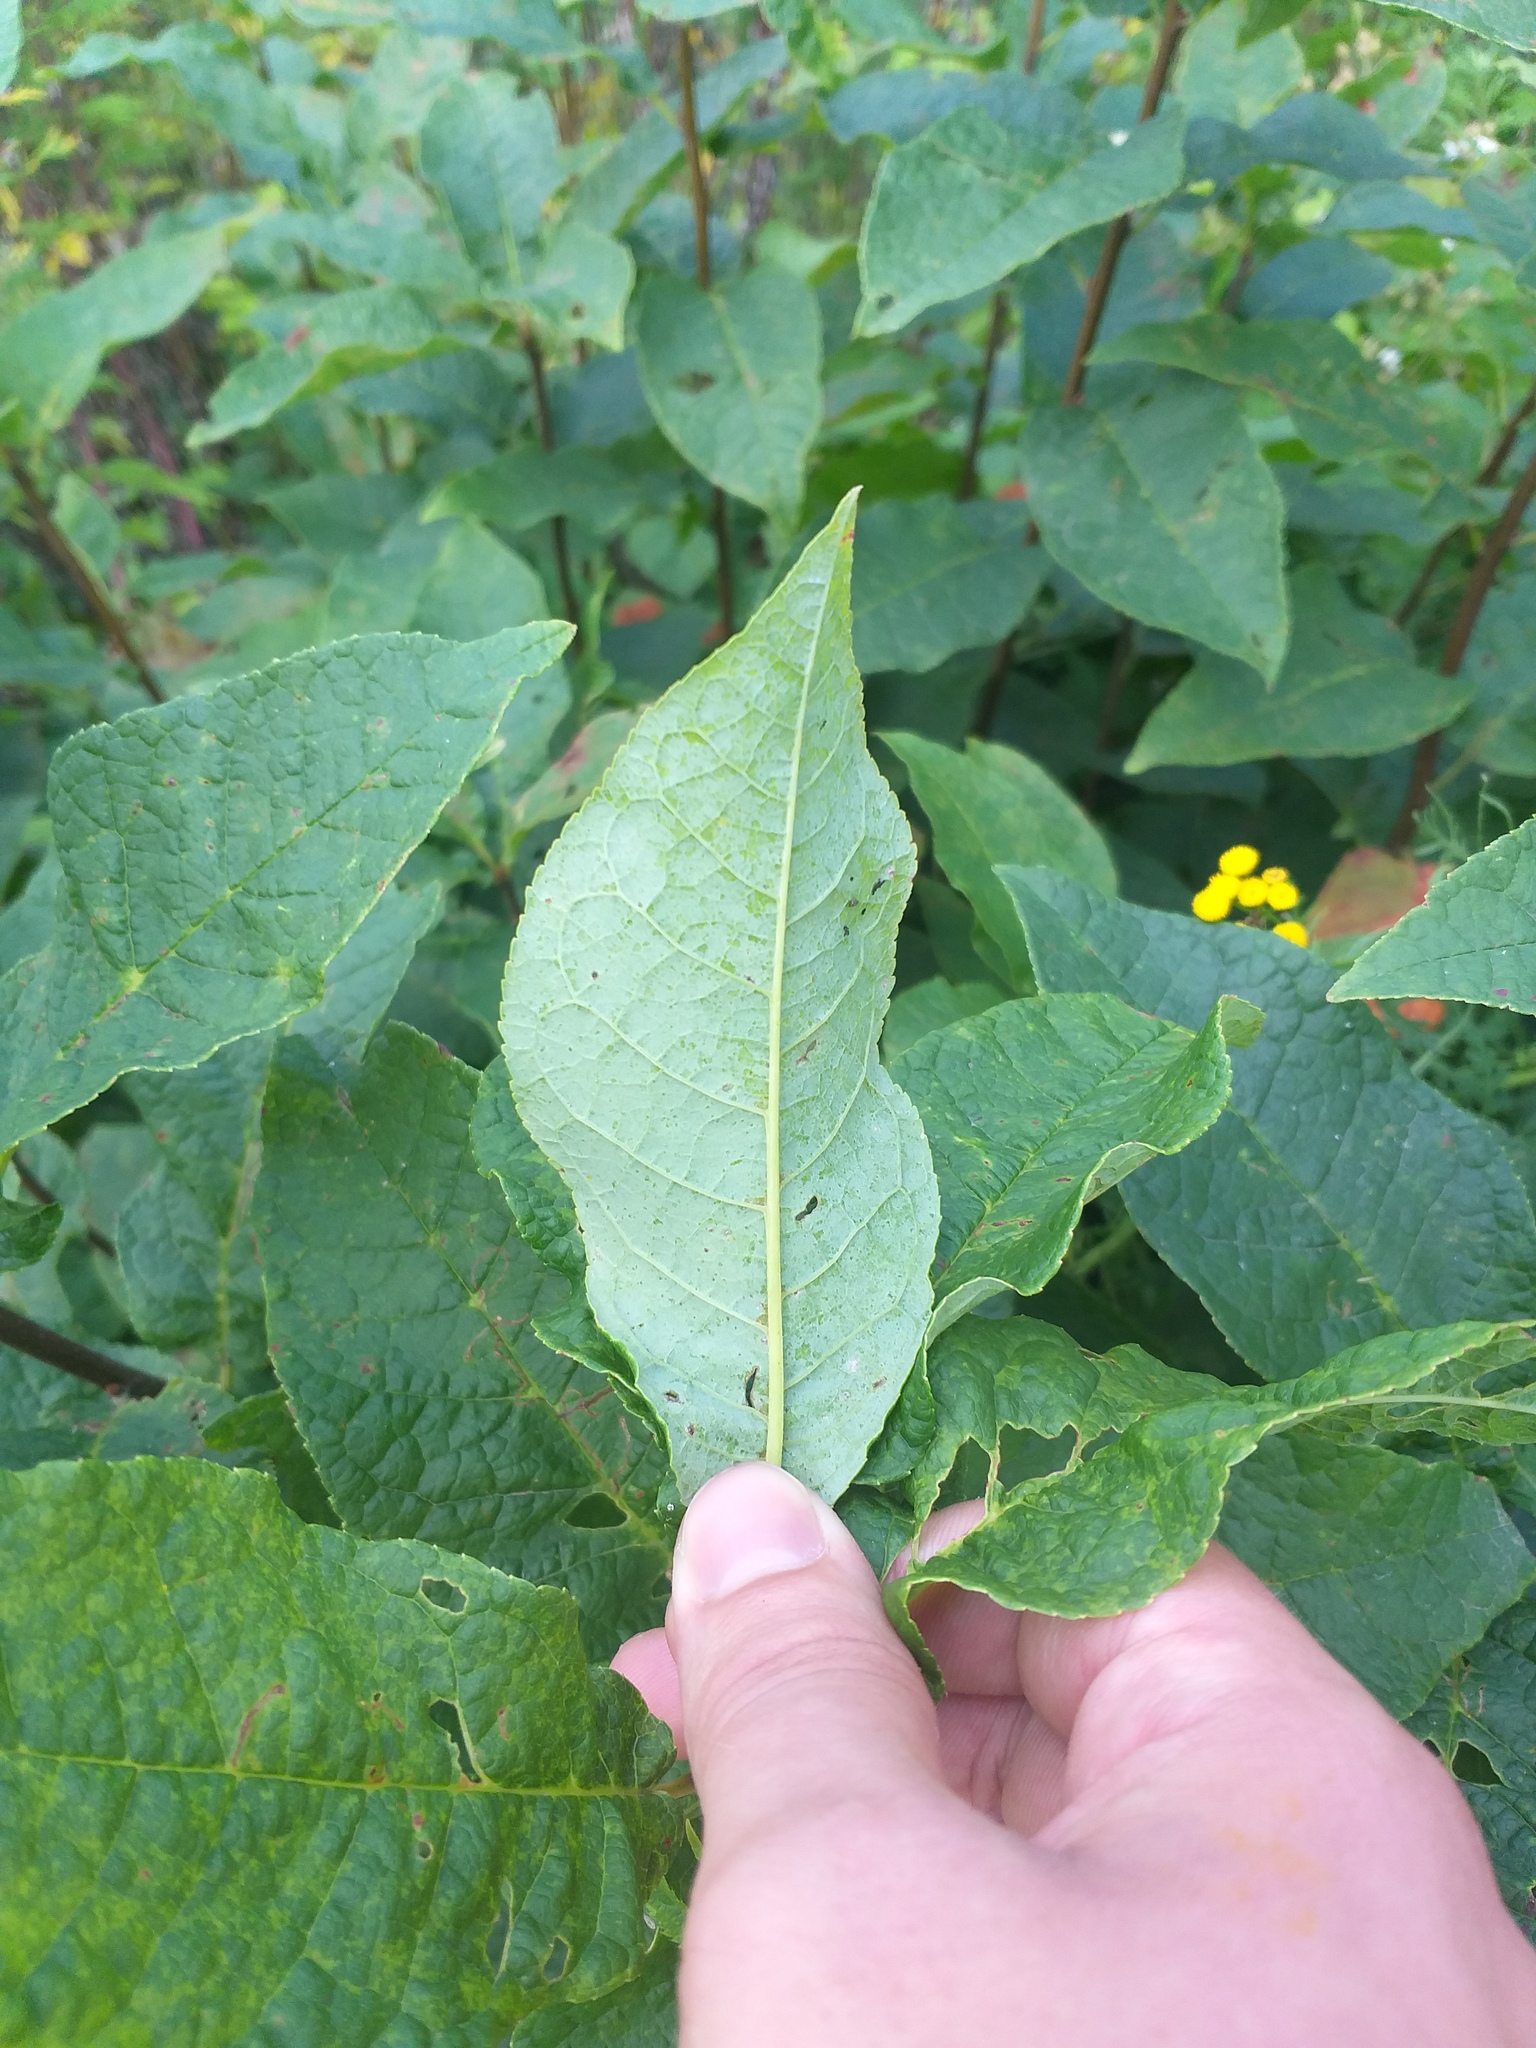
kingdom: Plantae
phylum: Tracheophyta
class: Magnoliopsida
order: Rosales
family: Rosaceae
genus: Prunus
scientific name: Prunus padus
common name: Bird cherry
